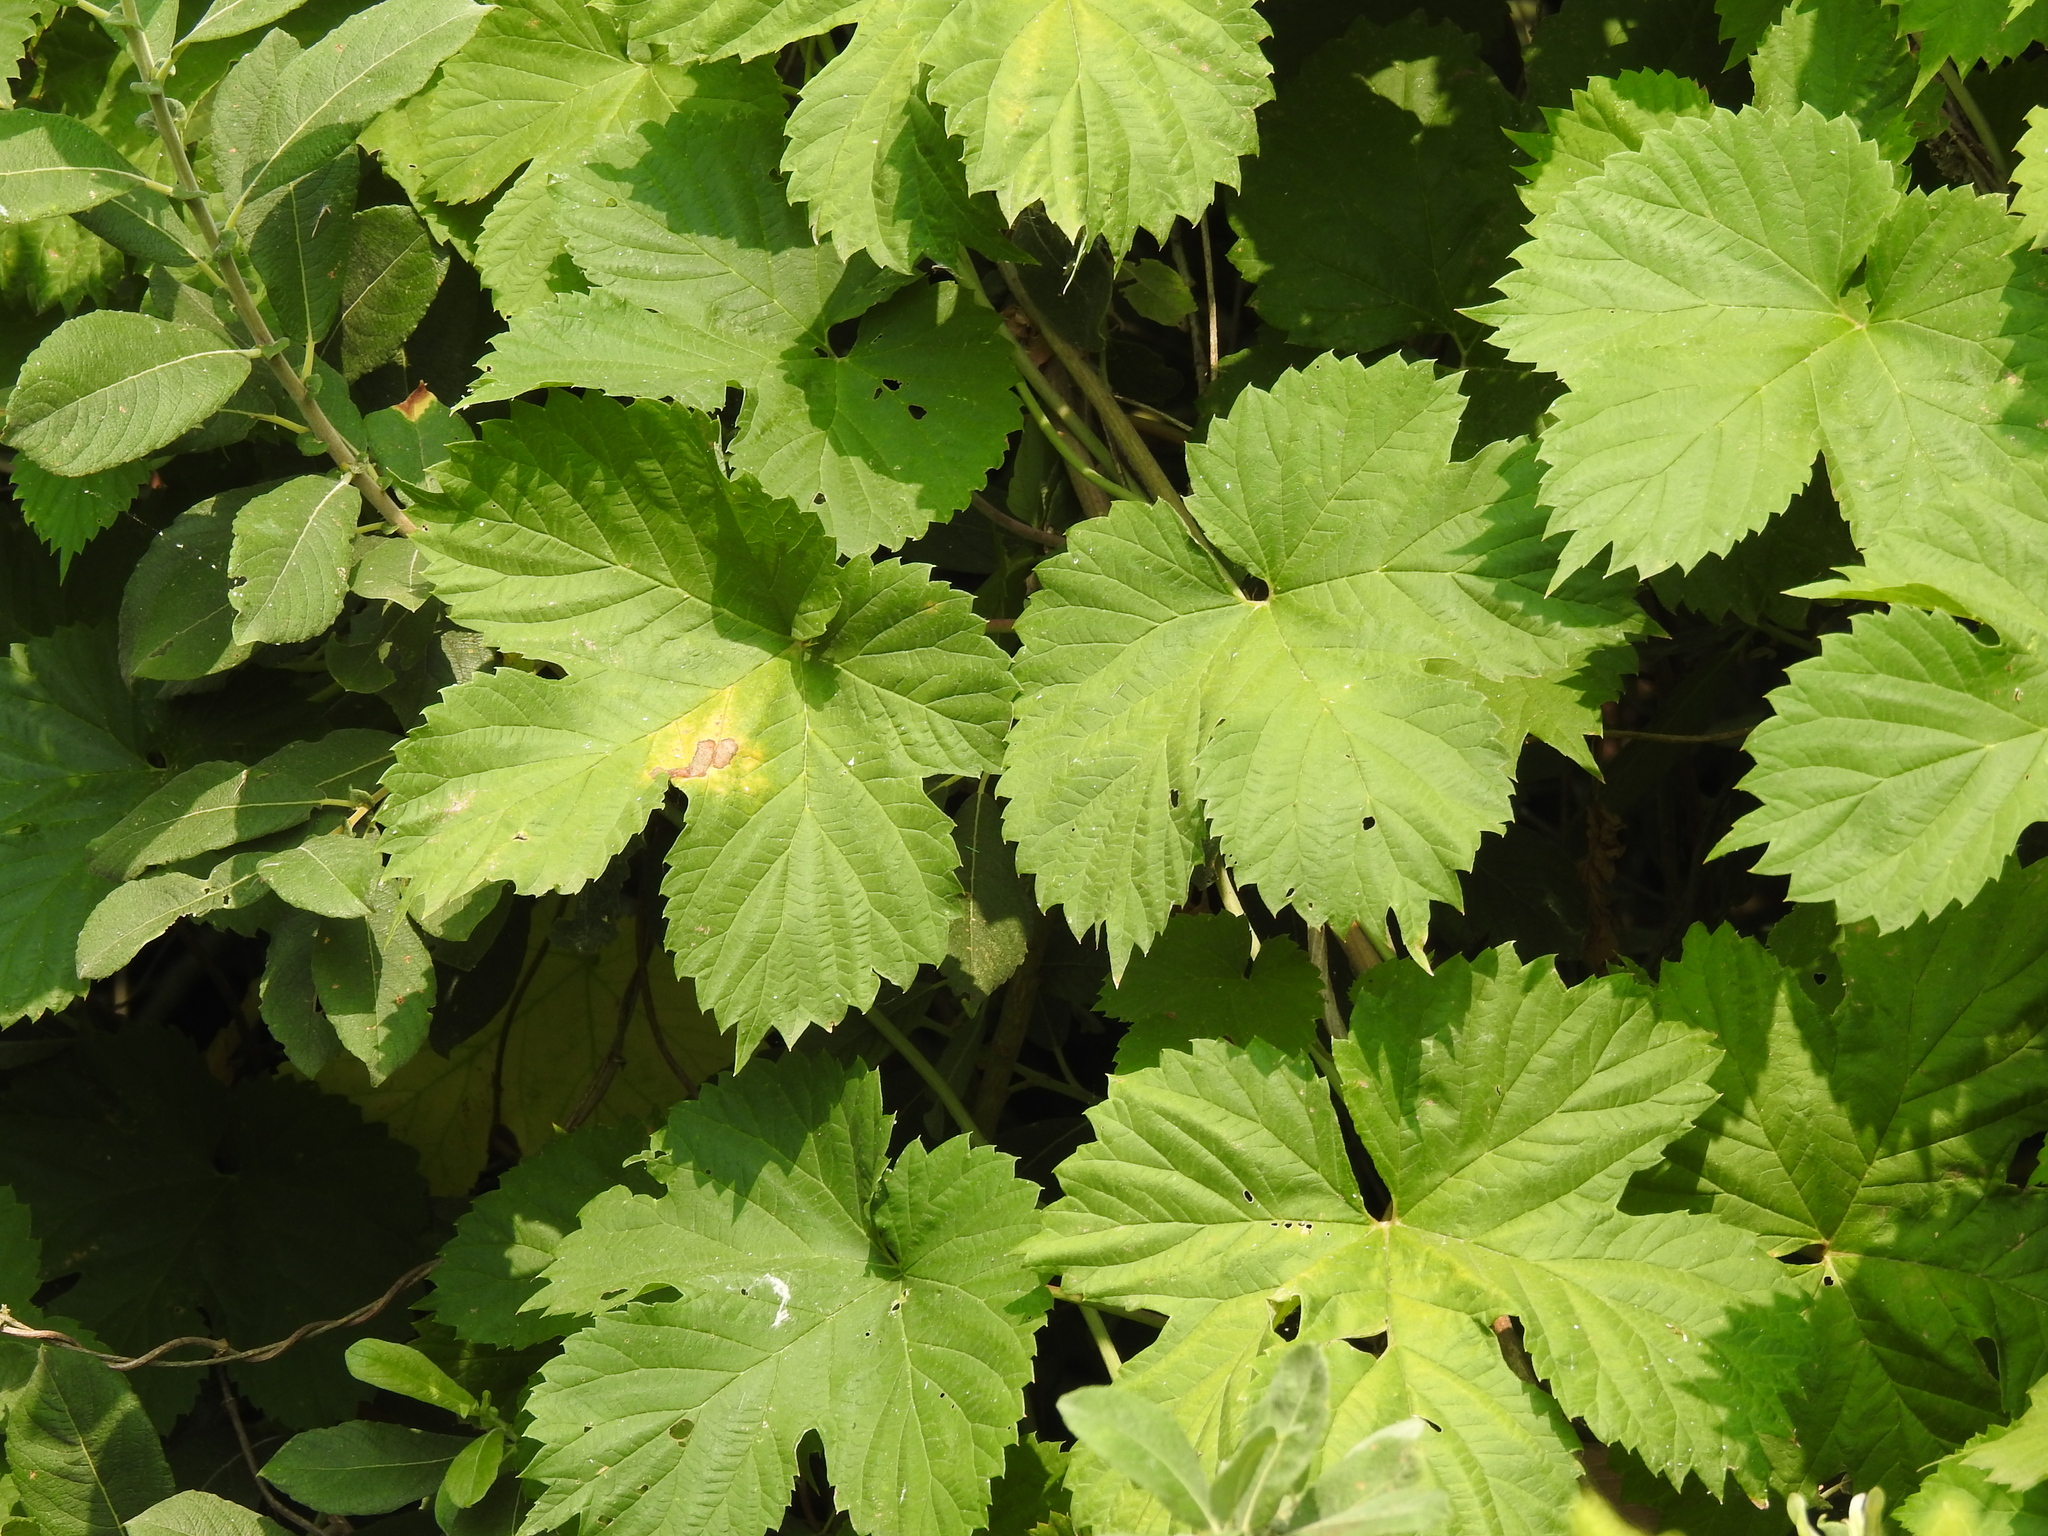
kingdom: Plantae
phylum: Tracheophyta
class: Magnoliopsida
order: Rosales
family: Cannabaceae
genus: Humulus
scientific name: Humulus lupulus
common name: Hop
